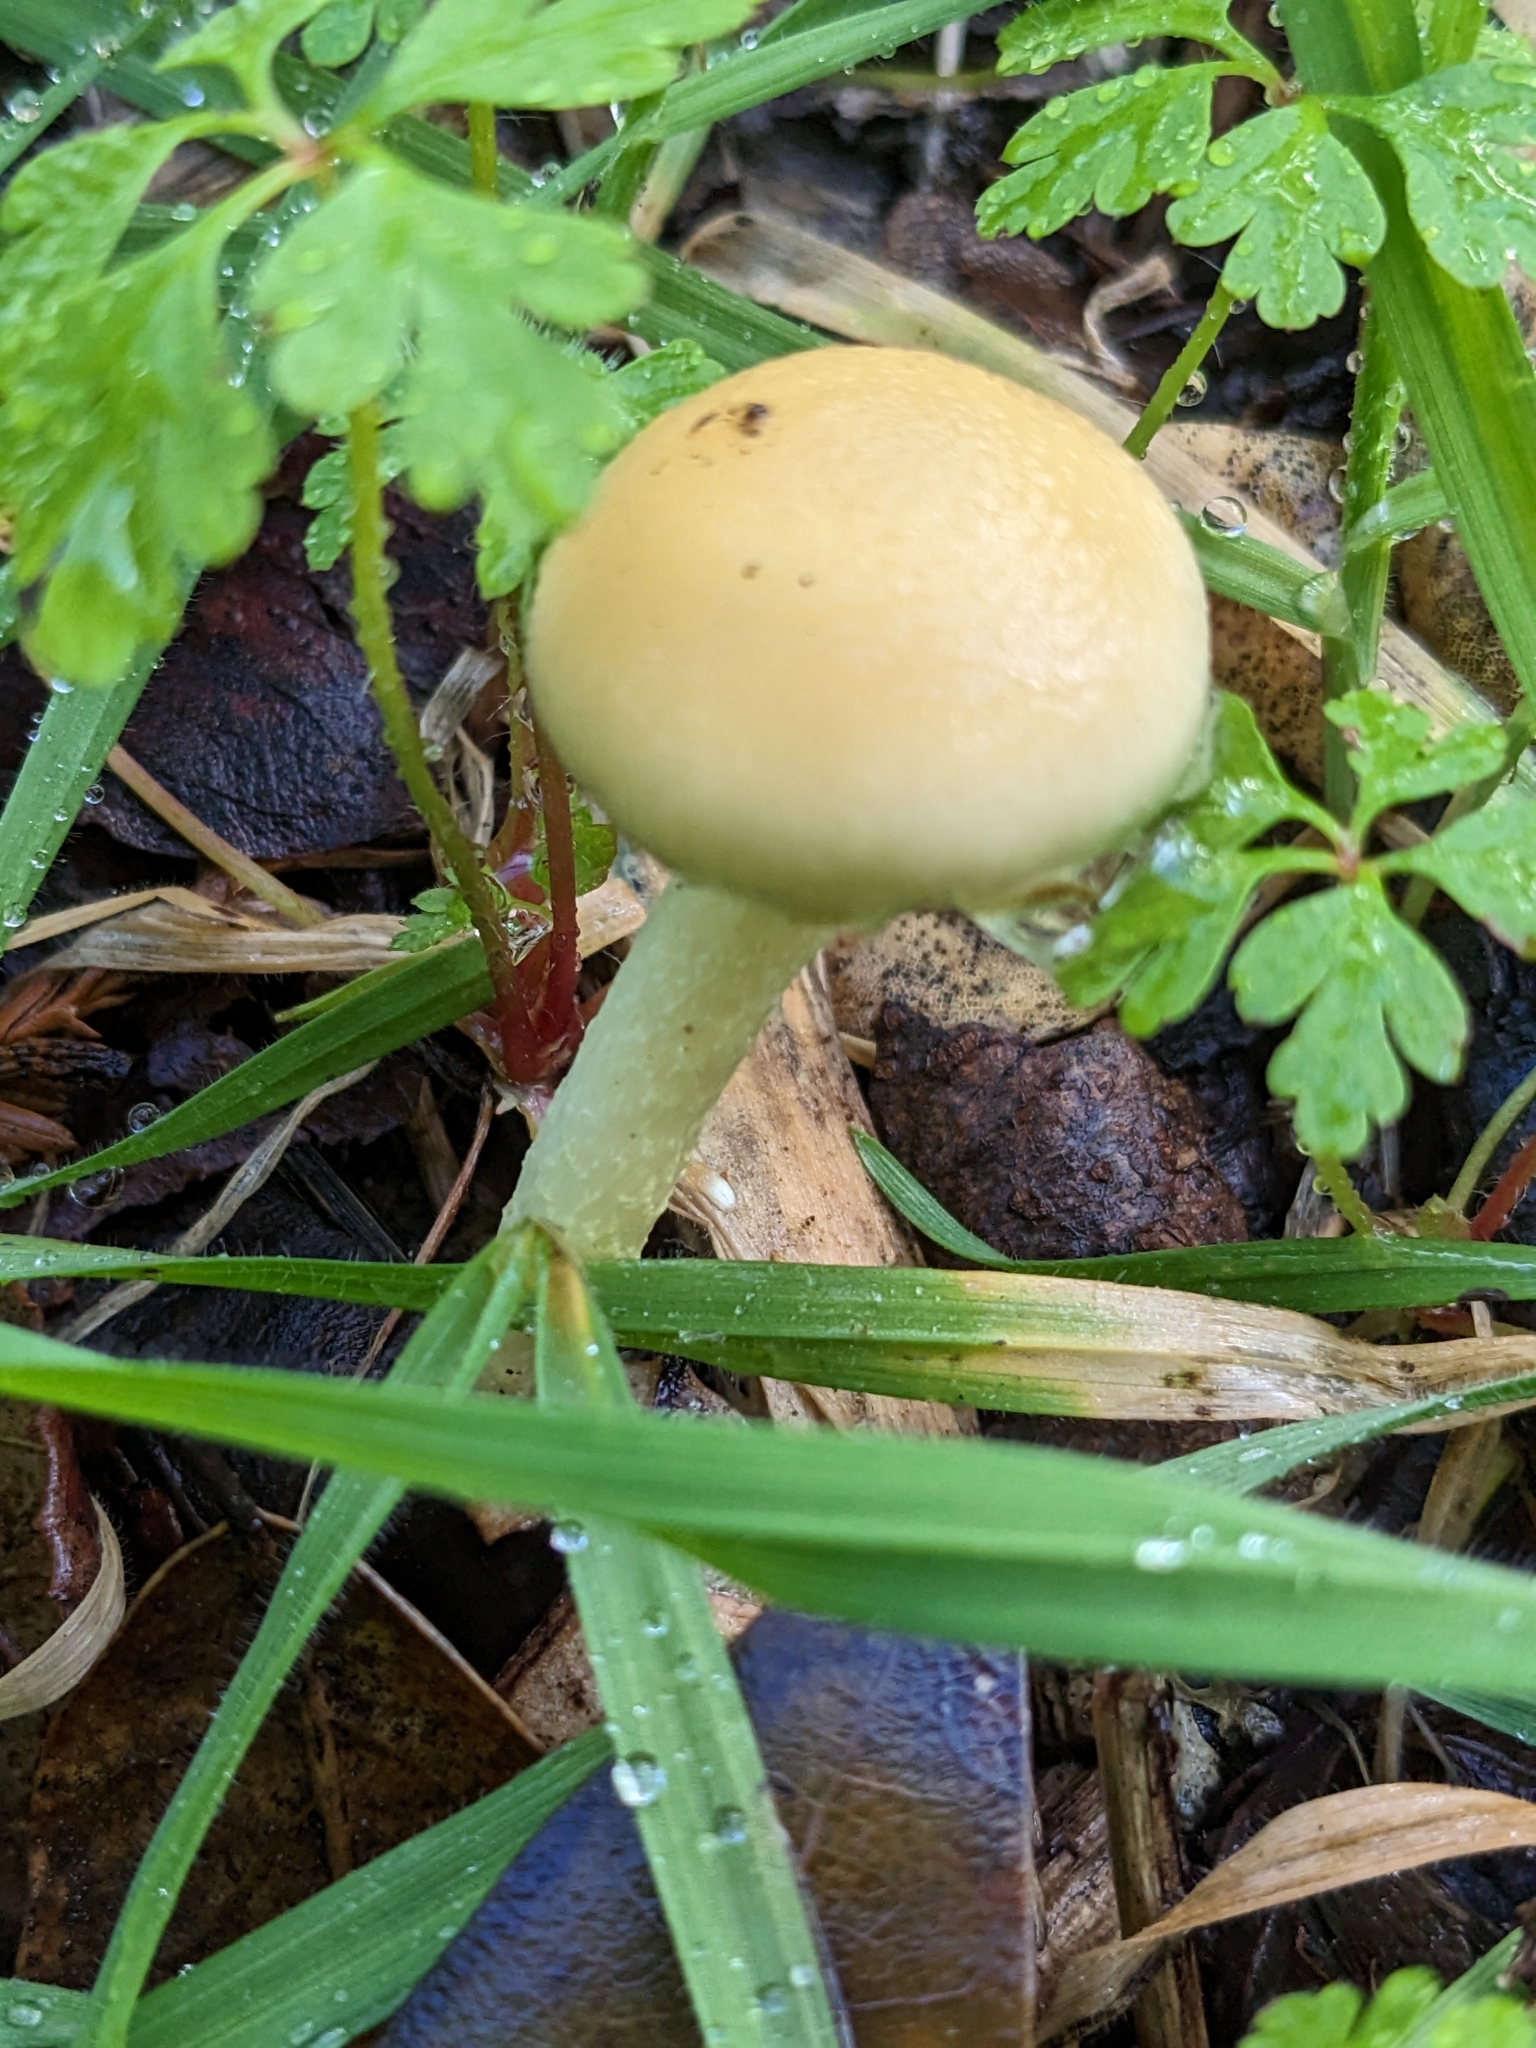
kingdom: Fungi
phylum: Basidiomycota
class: Agaricomycetes
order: Agaricales
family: Strophariaceae
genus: Leratiomyces
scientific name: Leratiomyces percevalii
